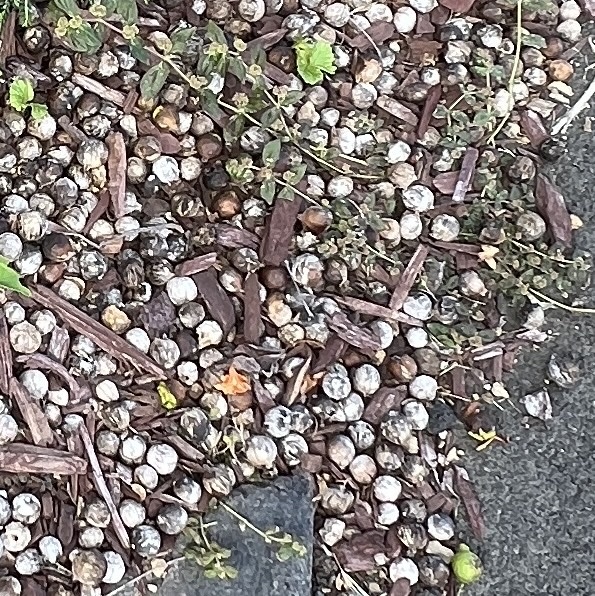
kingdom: Plantae
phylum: Tracheophyta
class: Magnoliopsida
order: Boraginales
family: Cordiaceae
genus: Cordia
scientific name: Cordia subcordata
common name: Mareer
